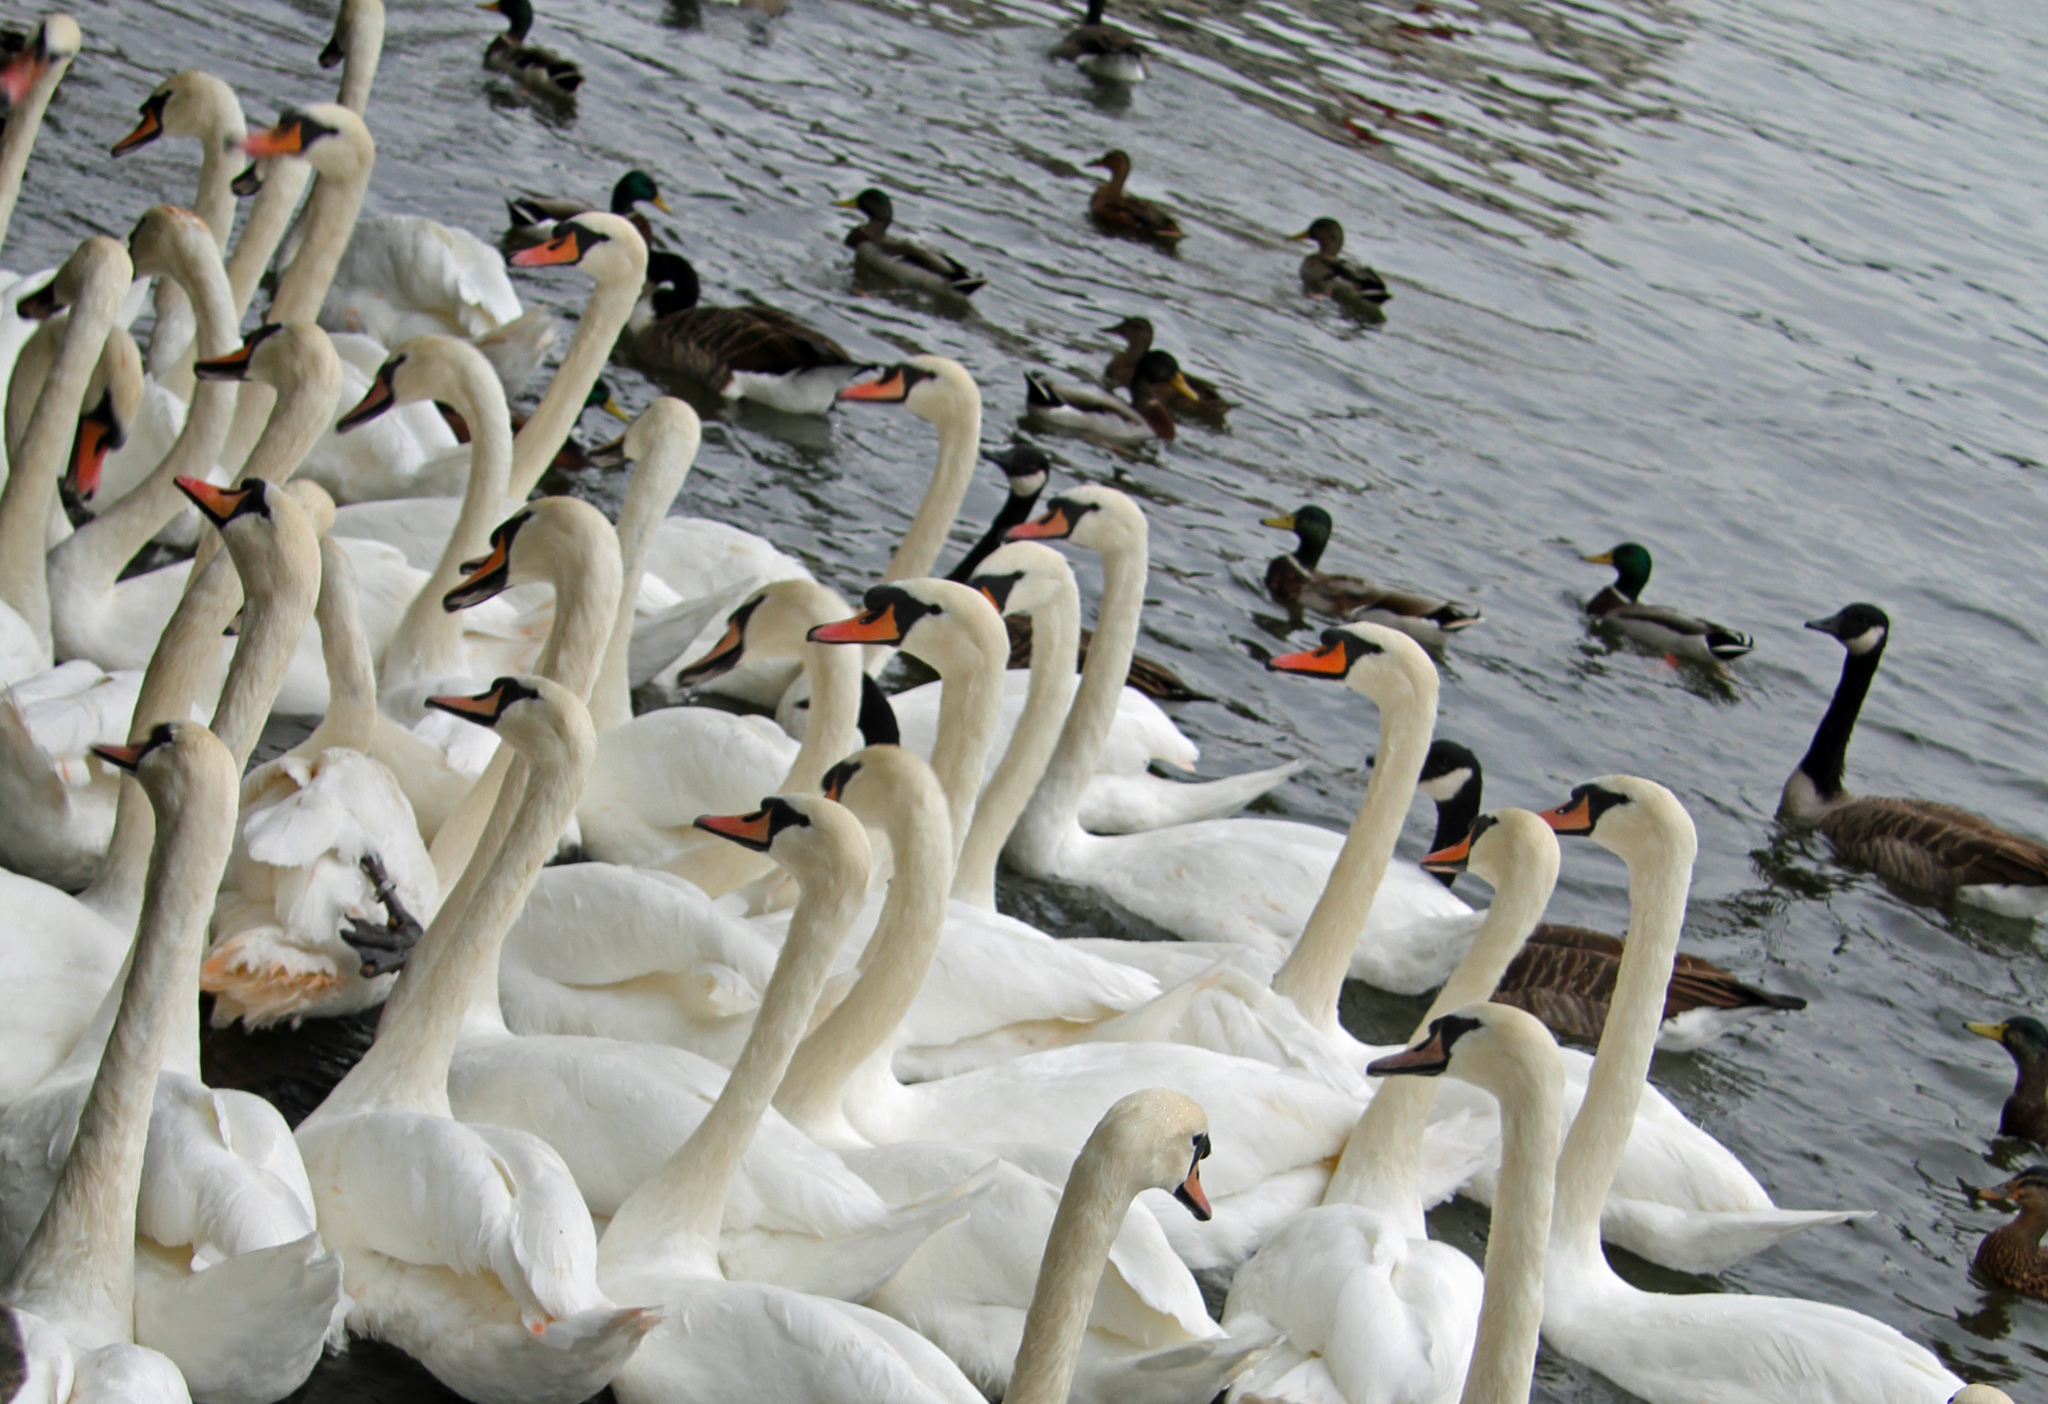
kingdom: Animalia
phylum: Chordata
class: Aves
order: Anseriformes
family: Anatidae
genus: Cygnus
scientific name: Cygnus olor
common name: Mute swan
